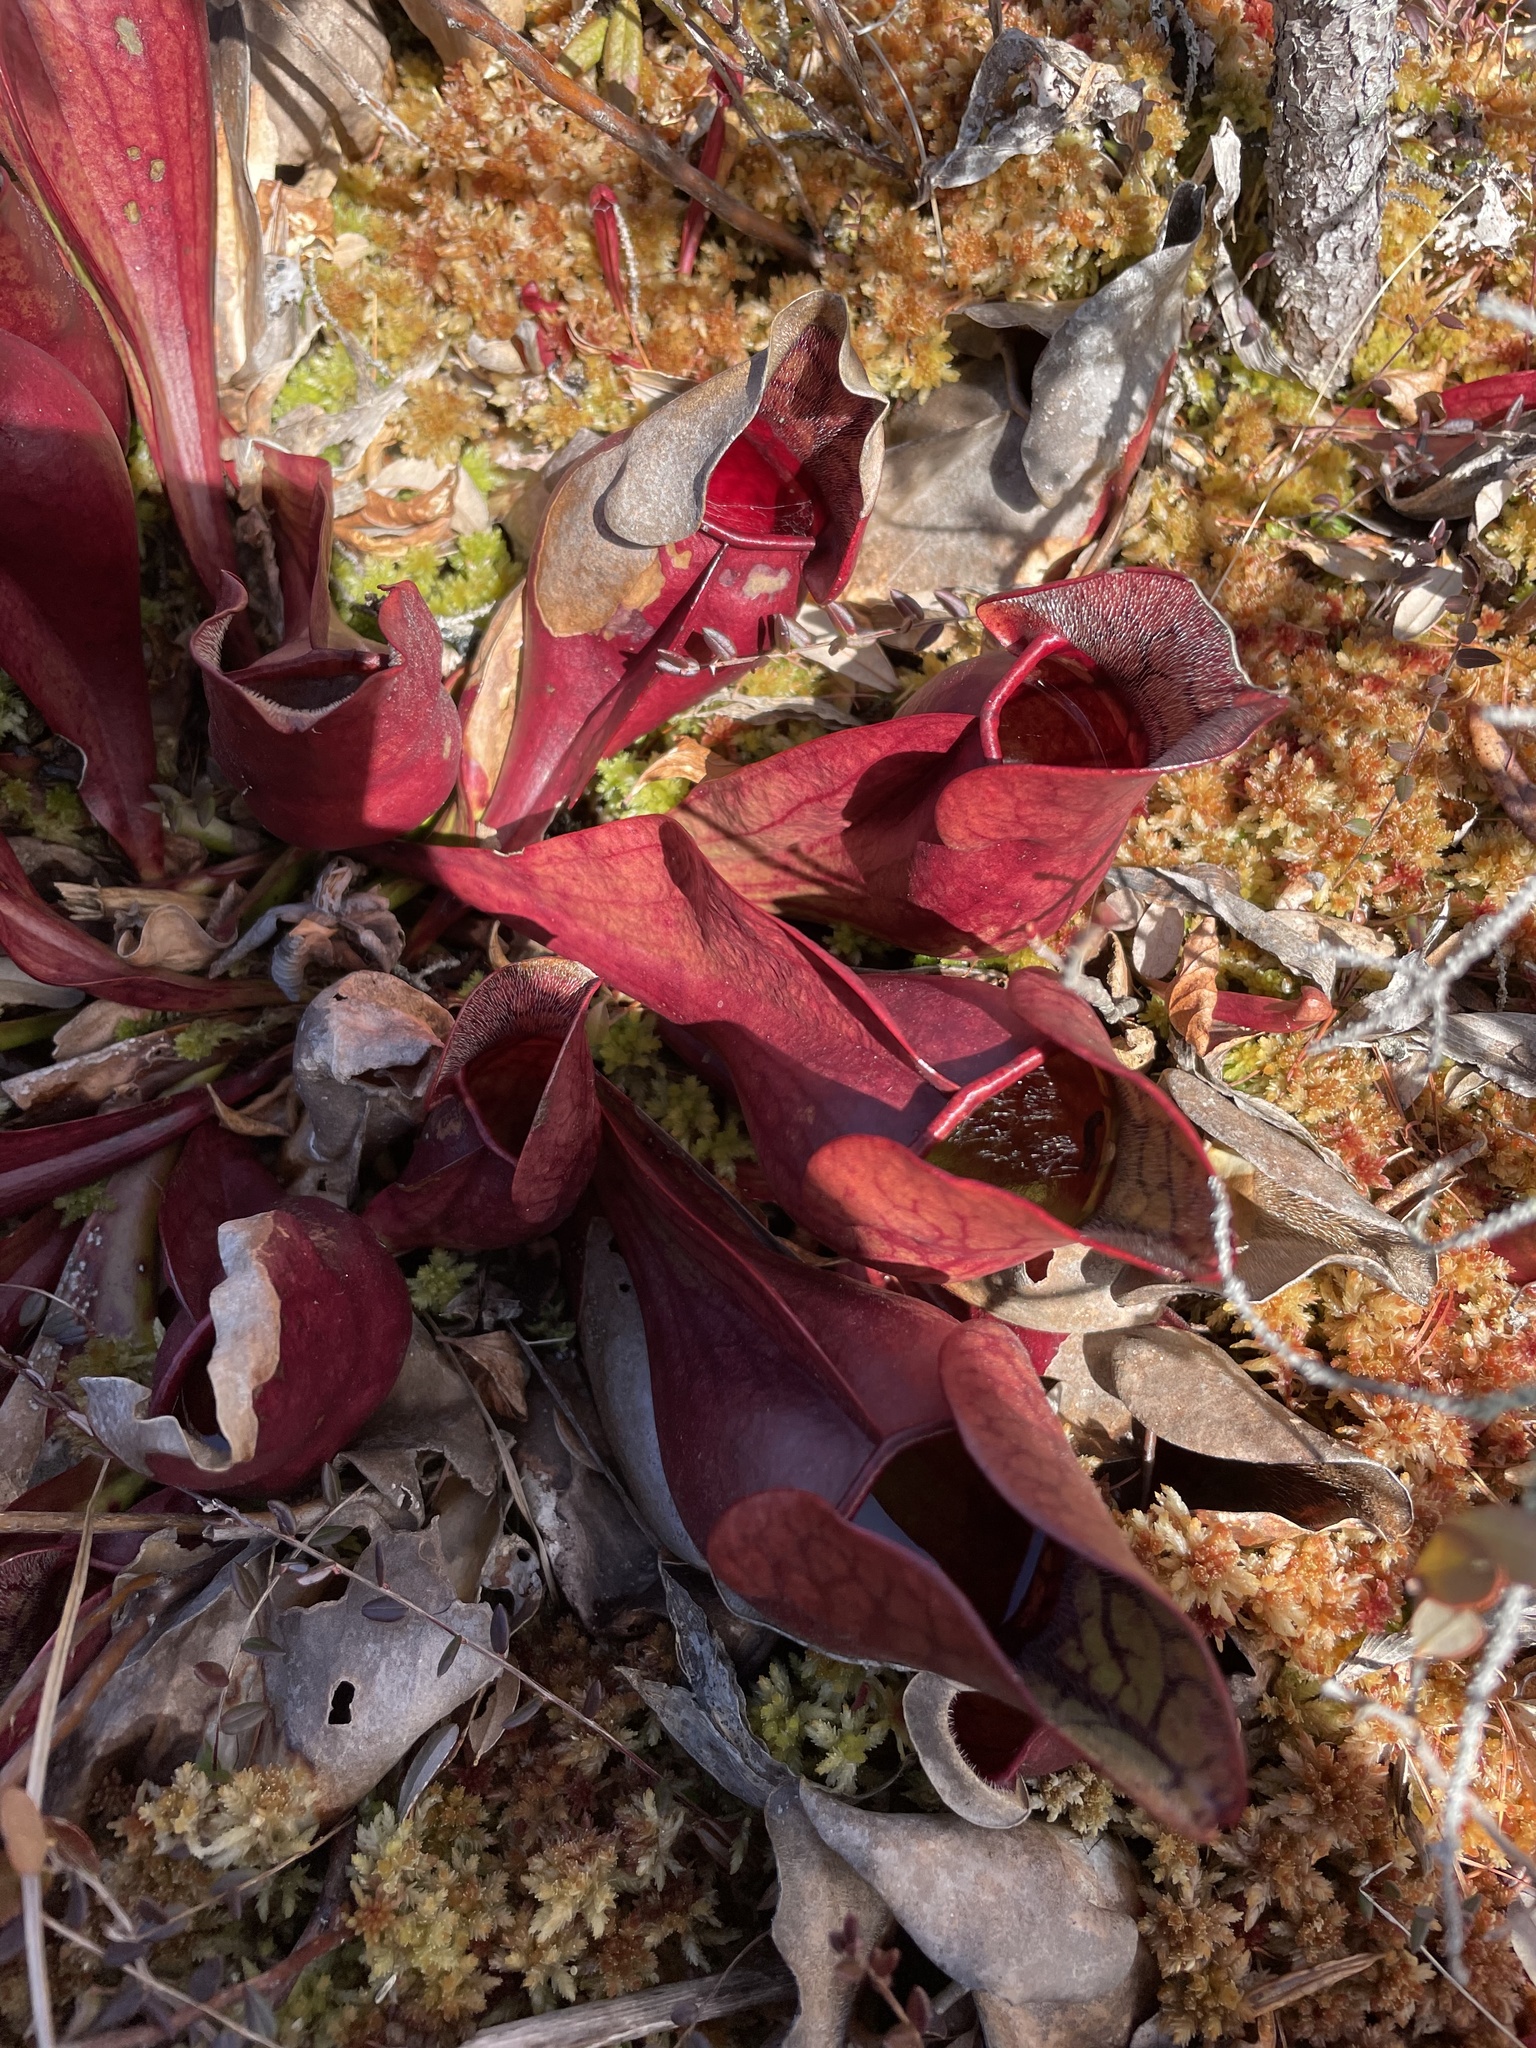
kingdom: Plantae
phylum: Tracheophyta
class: Magnoliopsida
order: Ericales
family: Sarraceniaceae
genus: Sarracenia
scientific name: Sarracenia purpurea
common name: Pitcherplant
